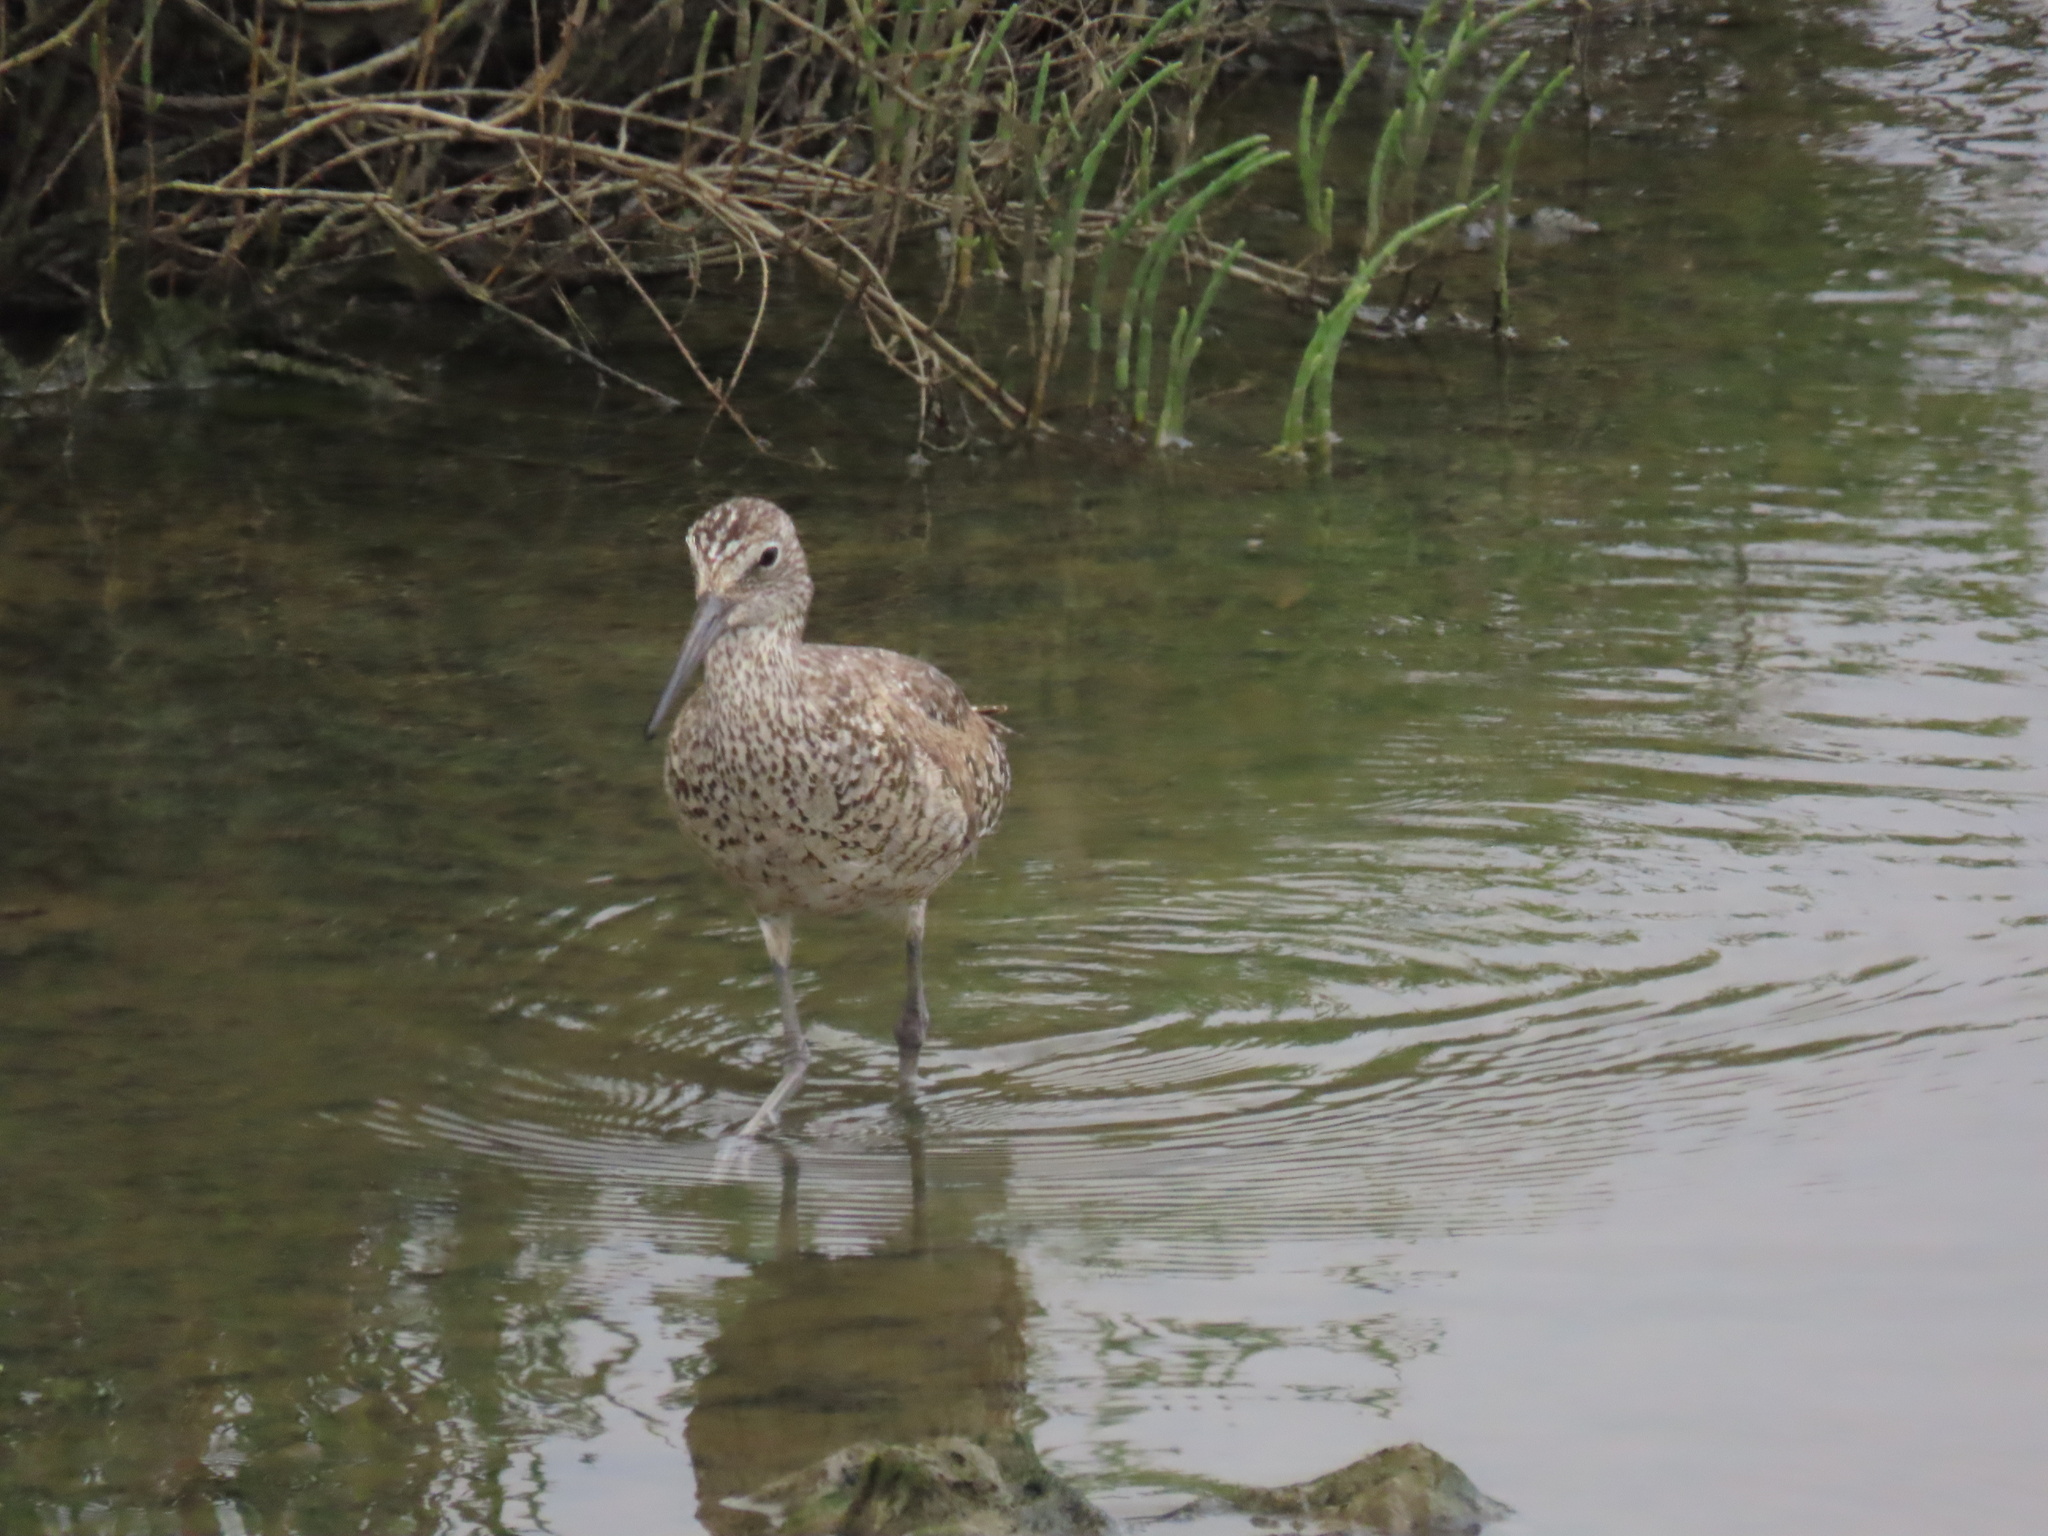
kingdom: Animalia
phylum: Chordata
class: Aves
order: Charadriiformes
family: Scolopacidae
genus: Tringa
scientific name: Tringa semipalmata
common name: Willet
